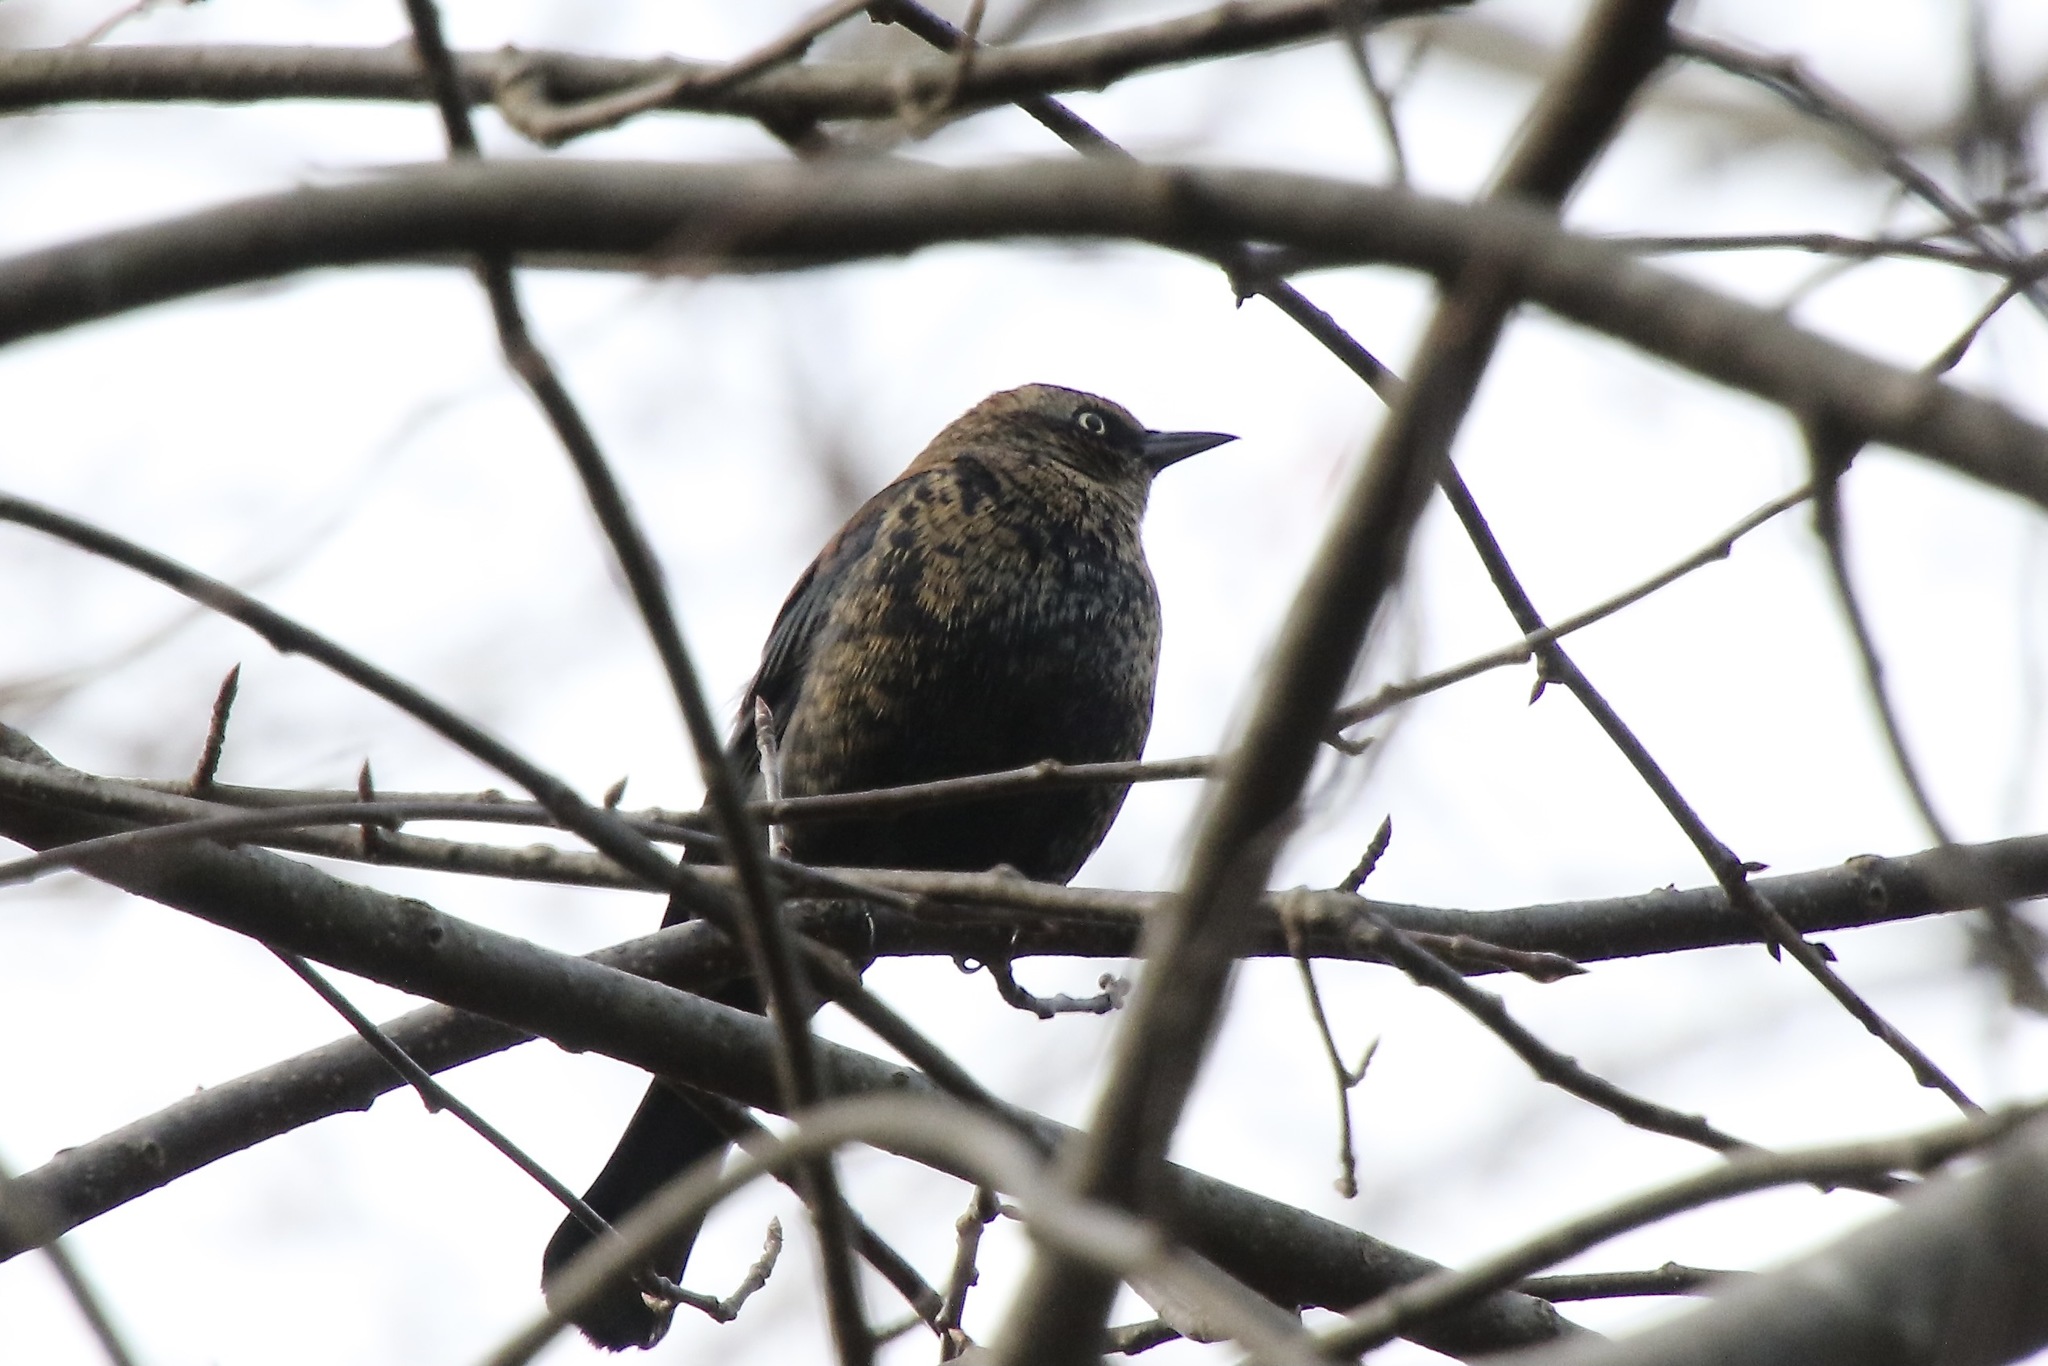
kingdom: Animalia
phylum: Chordata
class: Aves
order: Passeriformes
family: Icteridae
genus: Euphagus
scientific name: Euphagus carolinus
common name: Rusty blackbird
